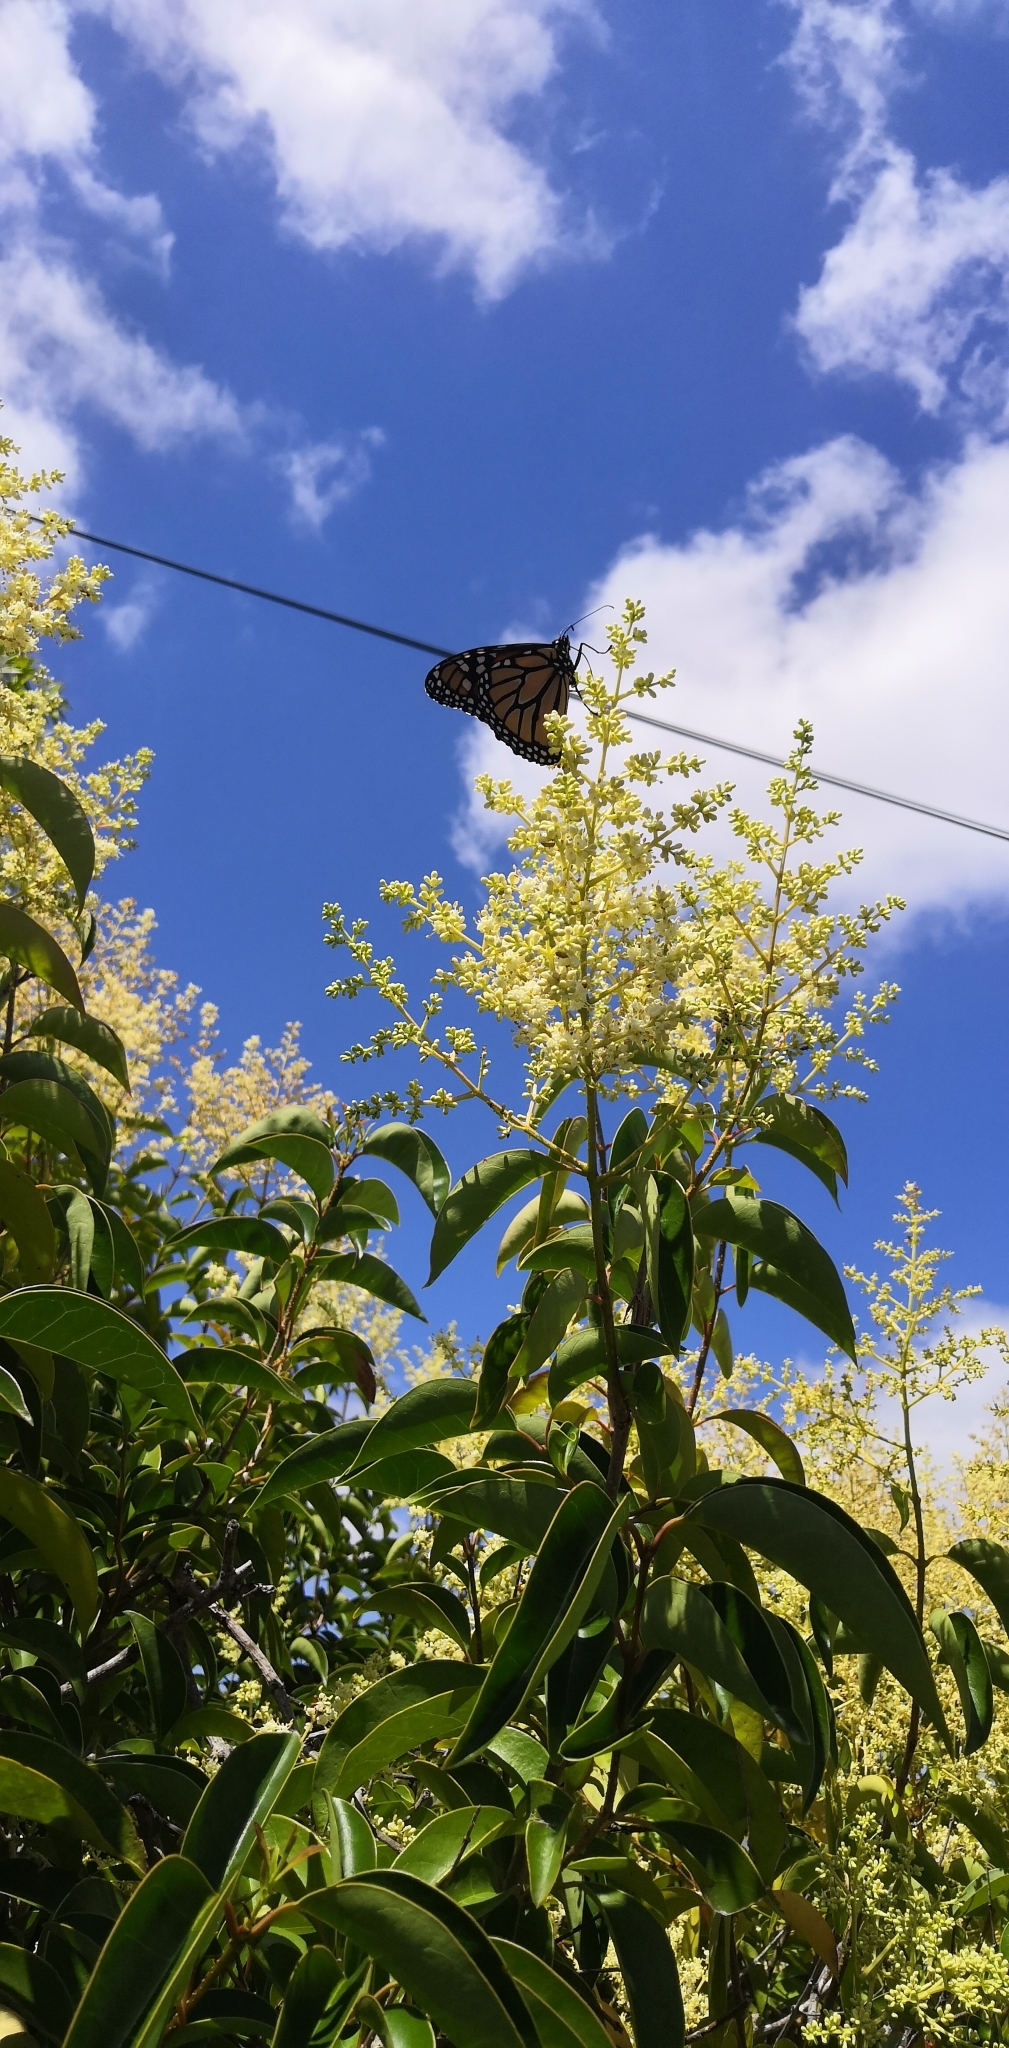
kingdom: Animalia
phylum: Arthropoda
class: Insecta
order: Lepidoptera
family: Nymphalidae
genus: Danaus
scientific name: Danaus plexippus
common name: Monarch
